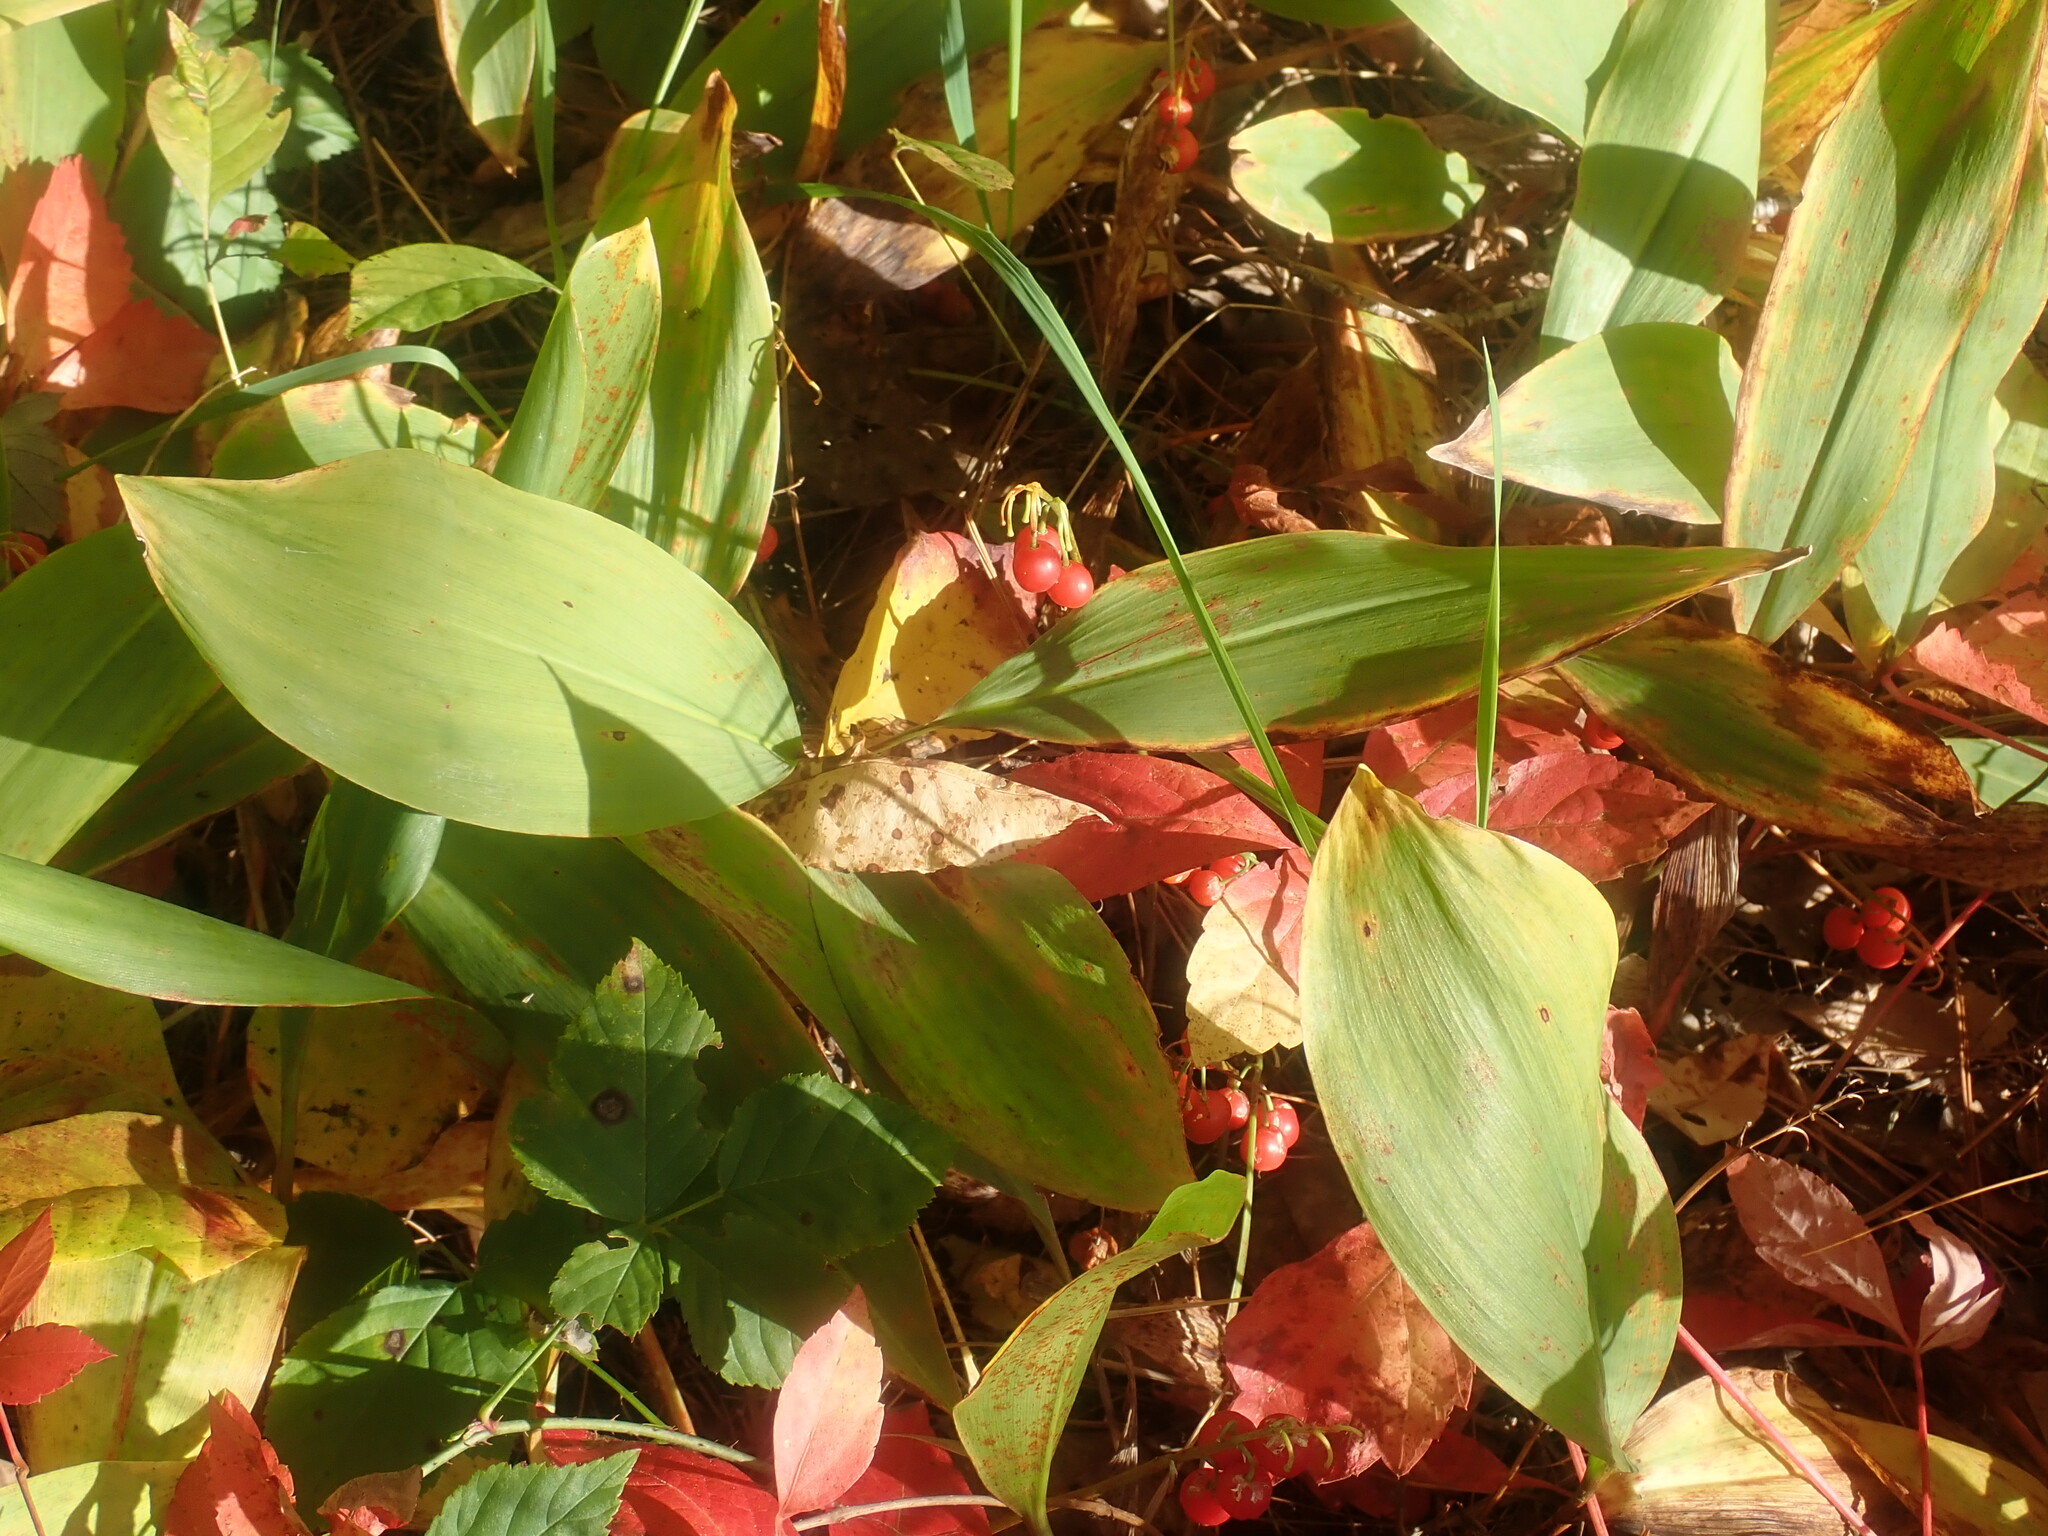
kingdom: Plantae
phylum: Tracheophyta
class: Liliopsida
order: Asparagales
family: Asparagaceae
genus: Convallaria
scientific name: Convallaria majalis
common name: Lily-of-the-valley
